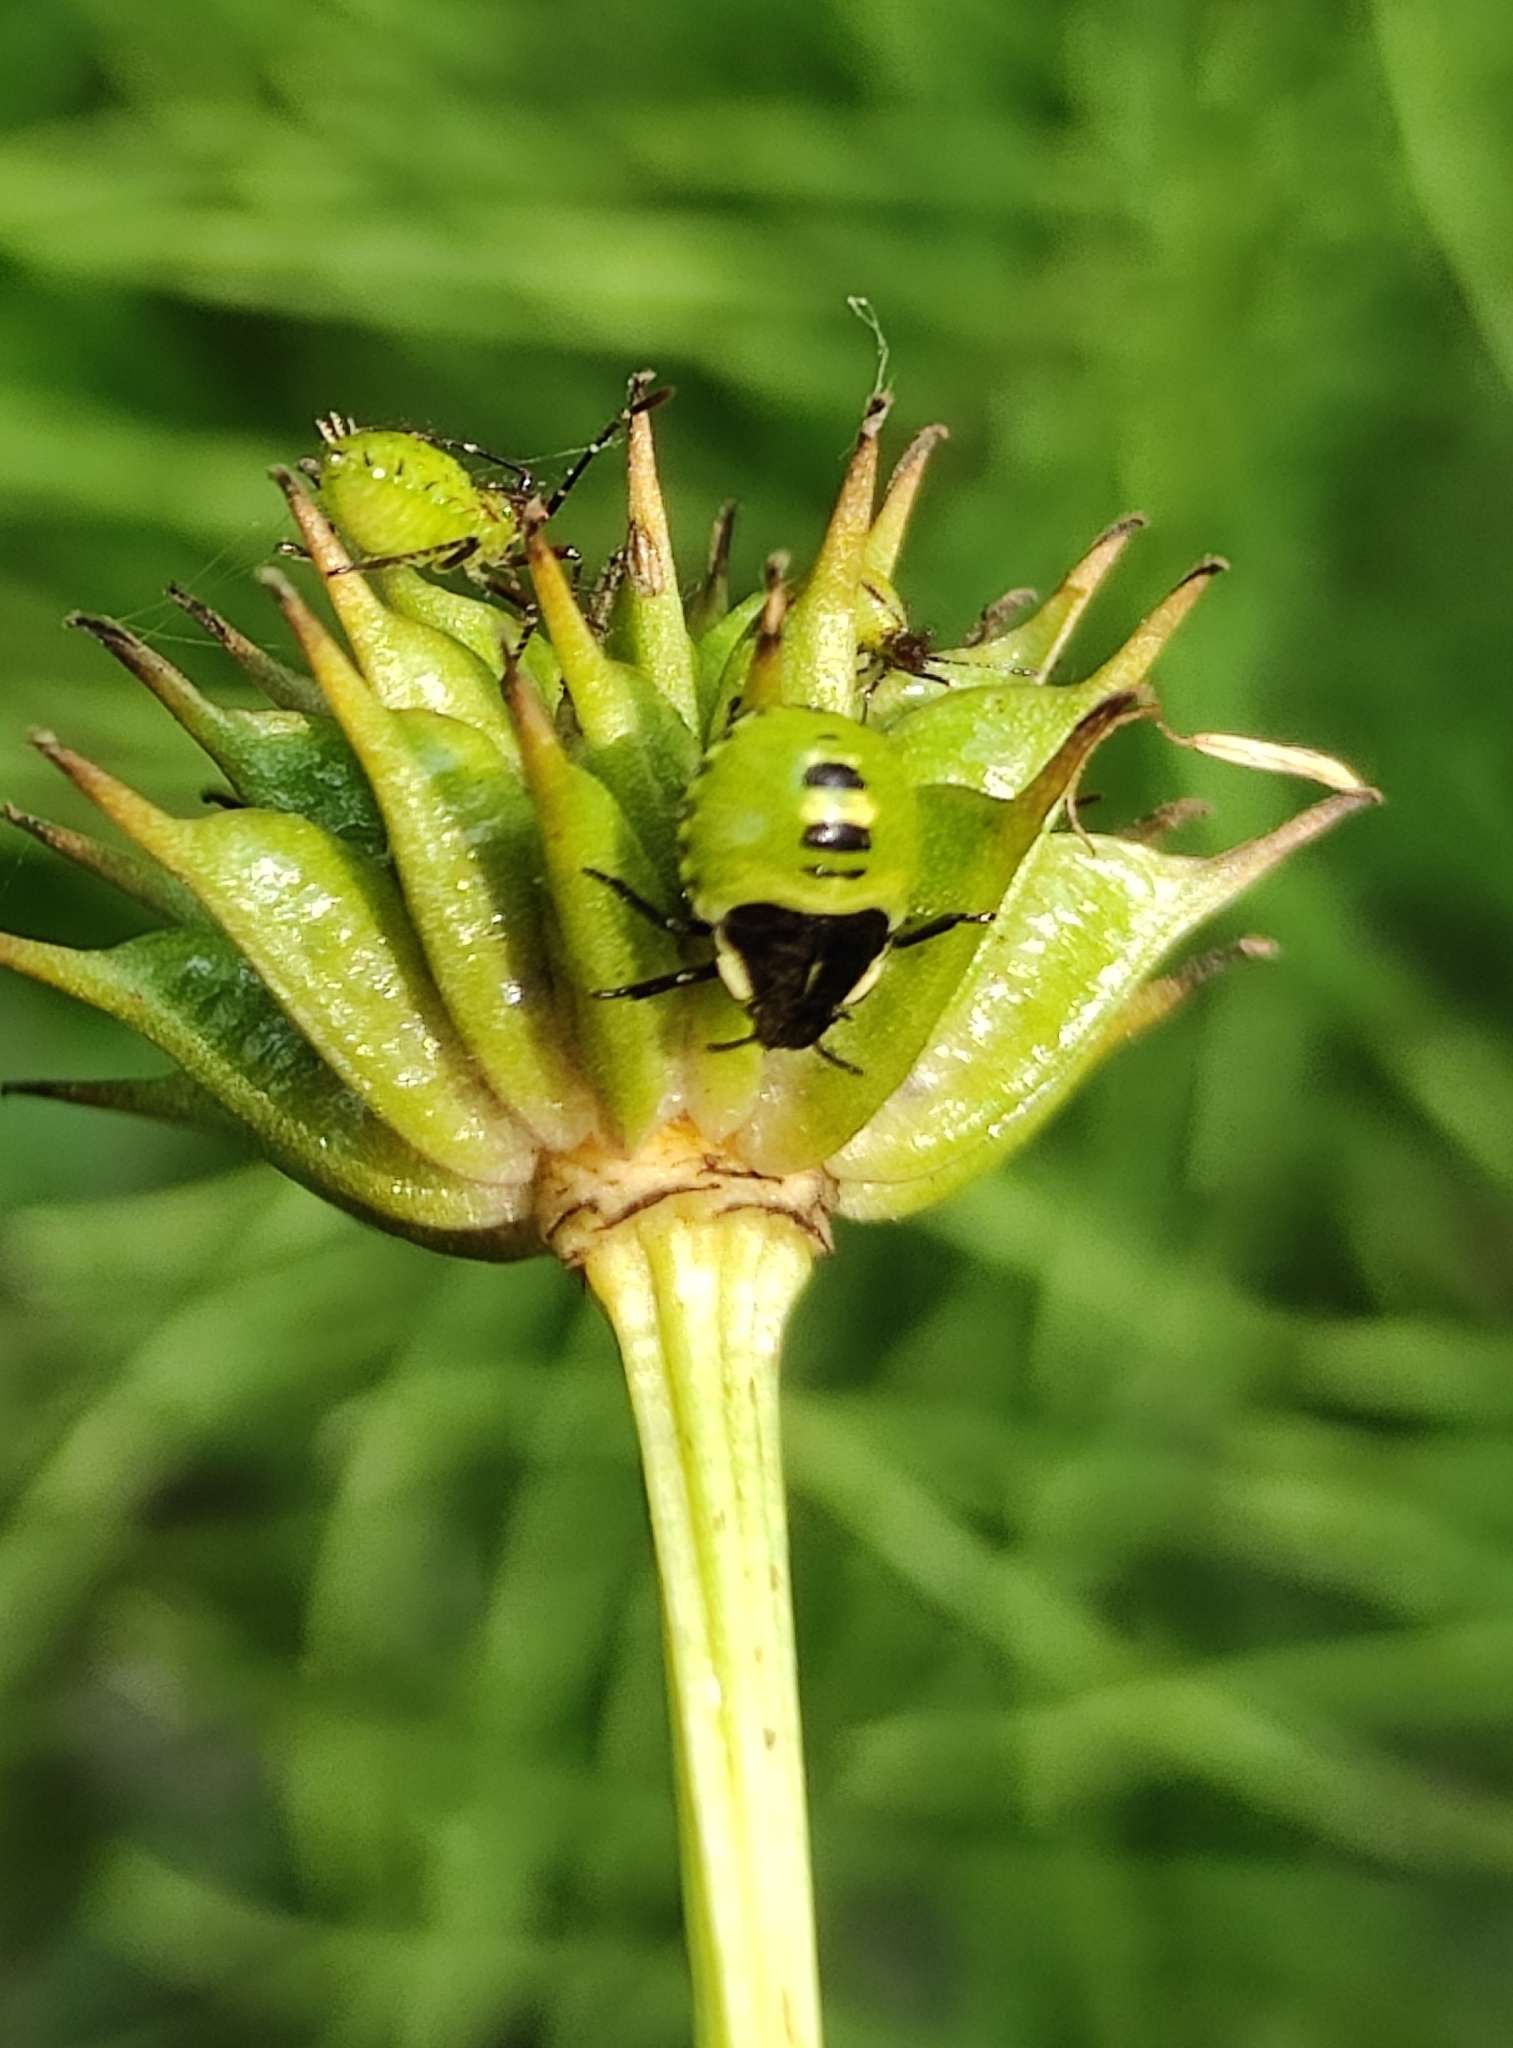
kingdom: Animalia
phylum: Arthropoda
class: Insecta
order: Hemiptera
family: Pentatomidae
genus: Palomena
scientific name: Palomena prasina
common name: Green shieldbug
